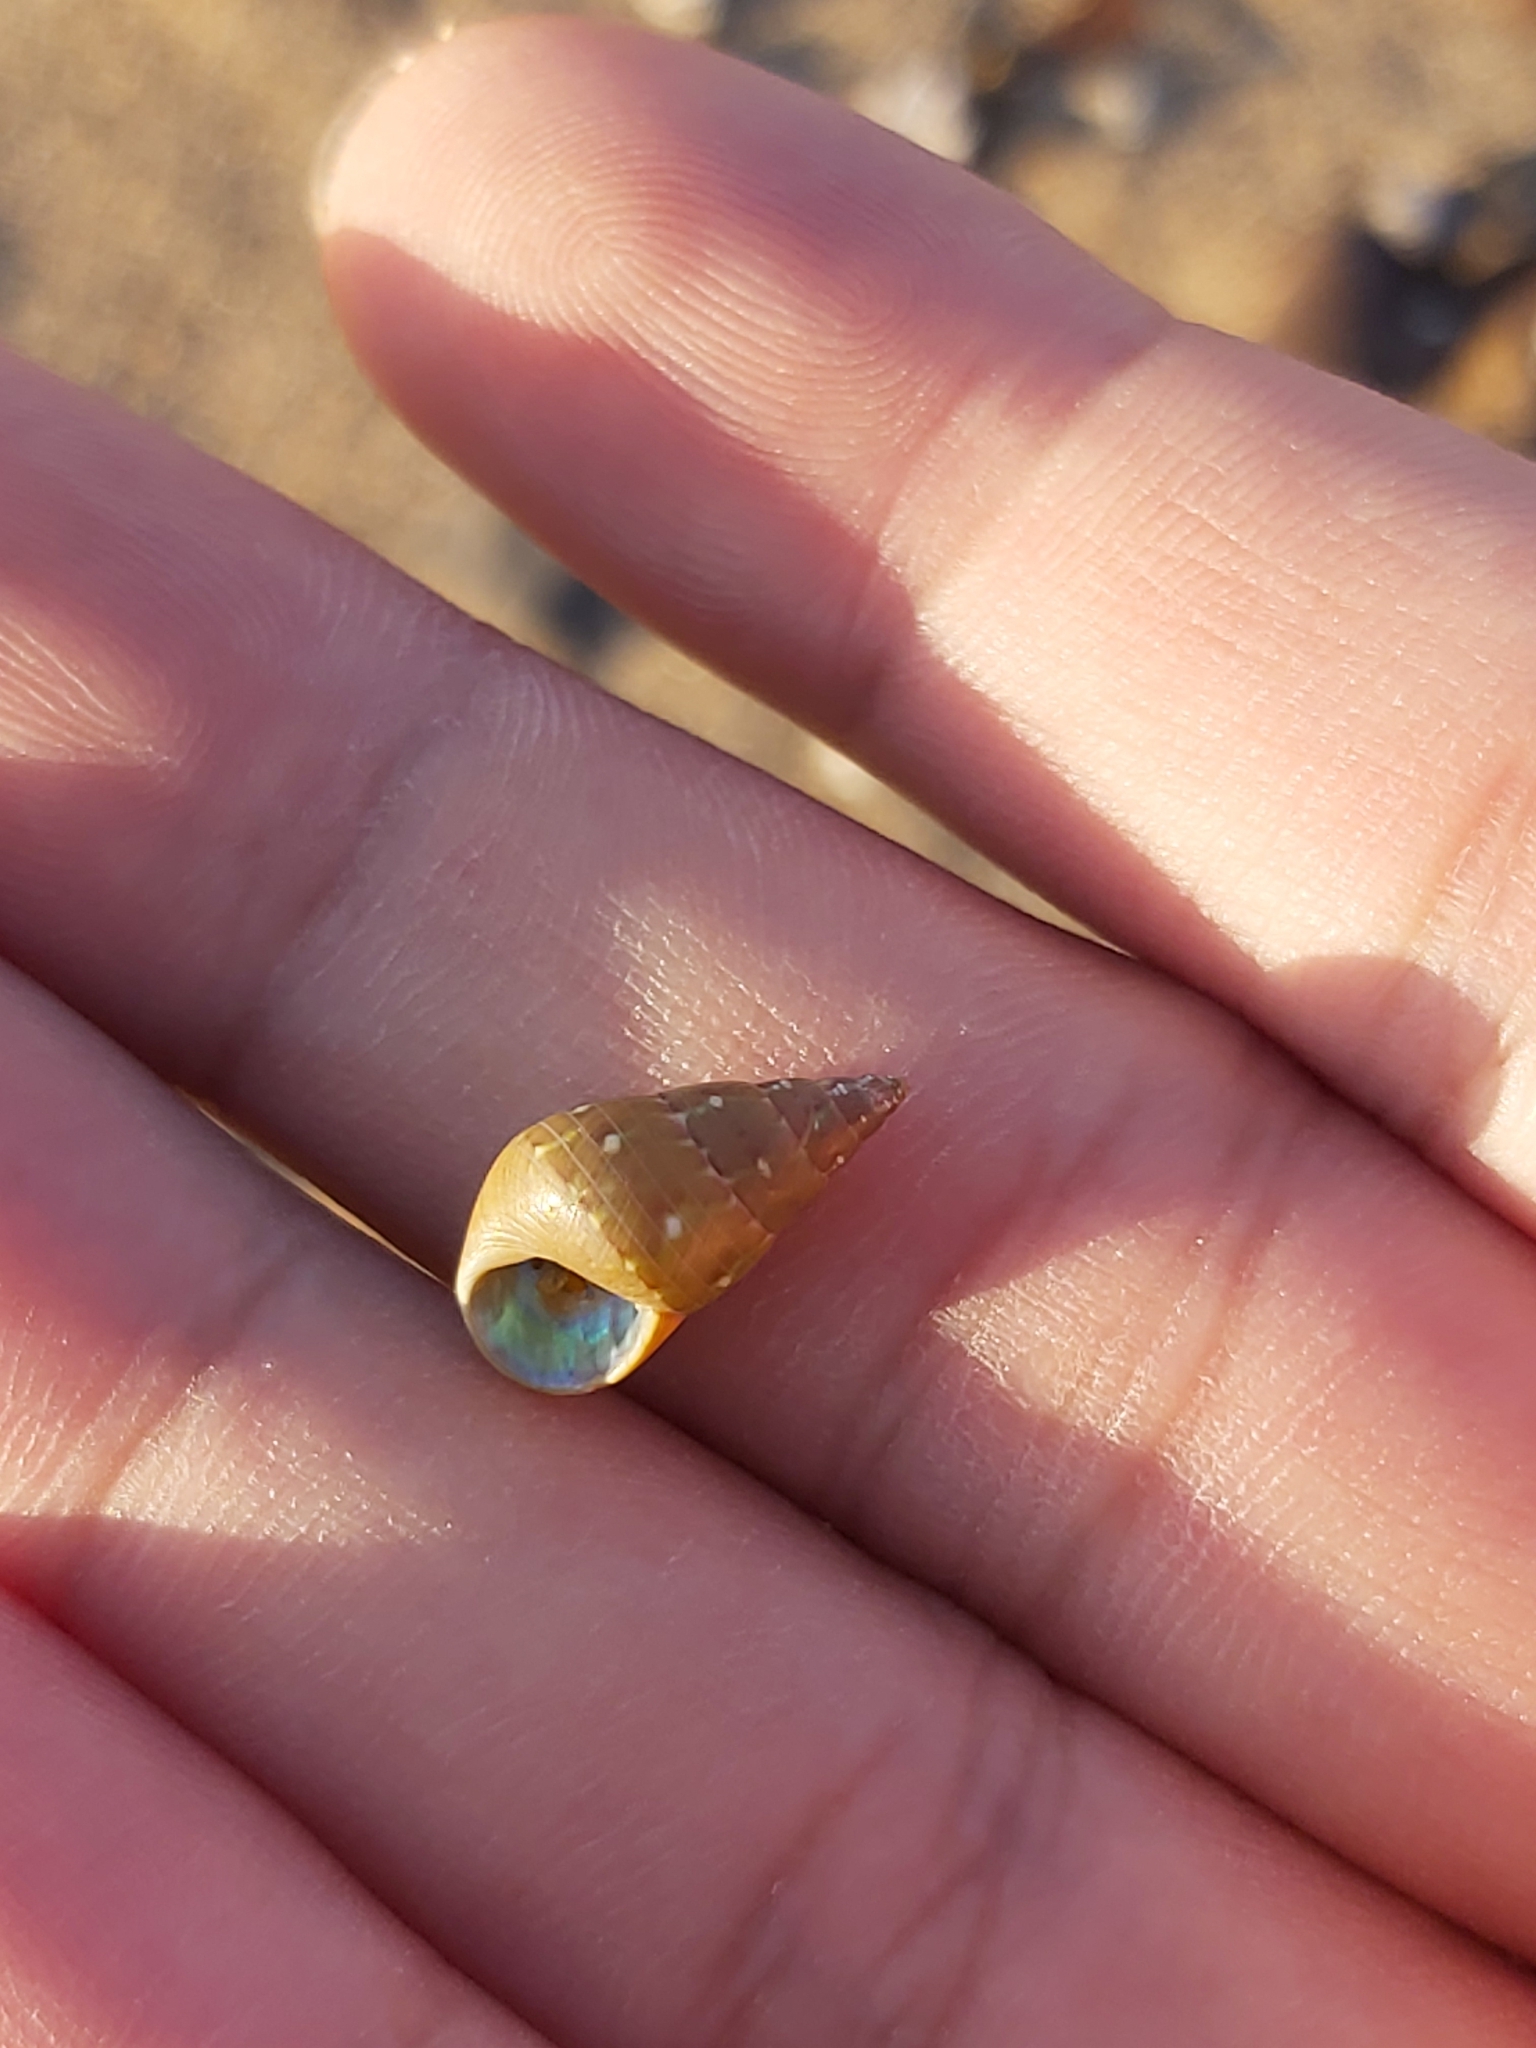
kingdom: Animalia
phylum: Mollusca
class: Gastropoda
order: Trochida
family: Trochidae
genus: Phasianotrochus
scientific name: Phasianotrochus eximius
